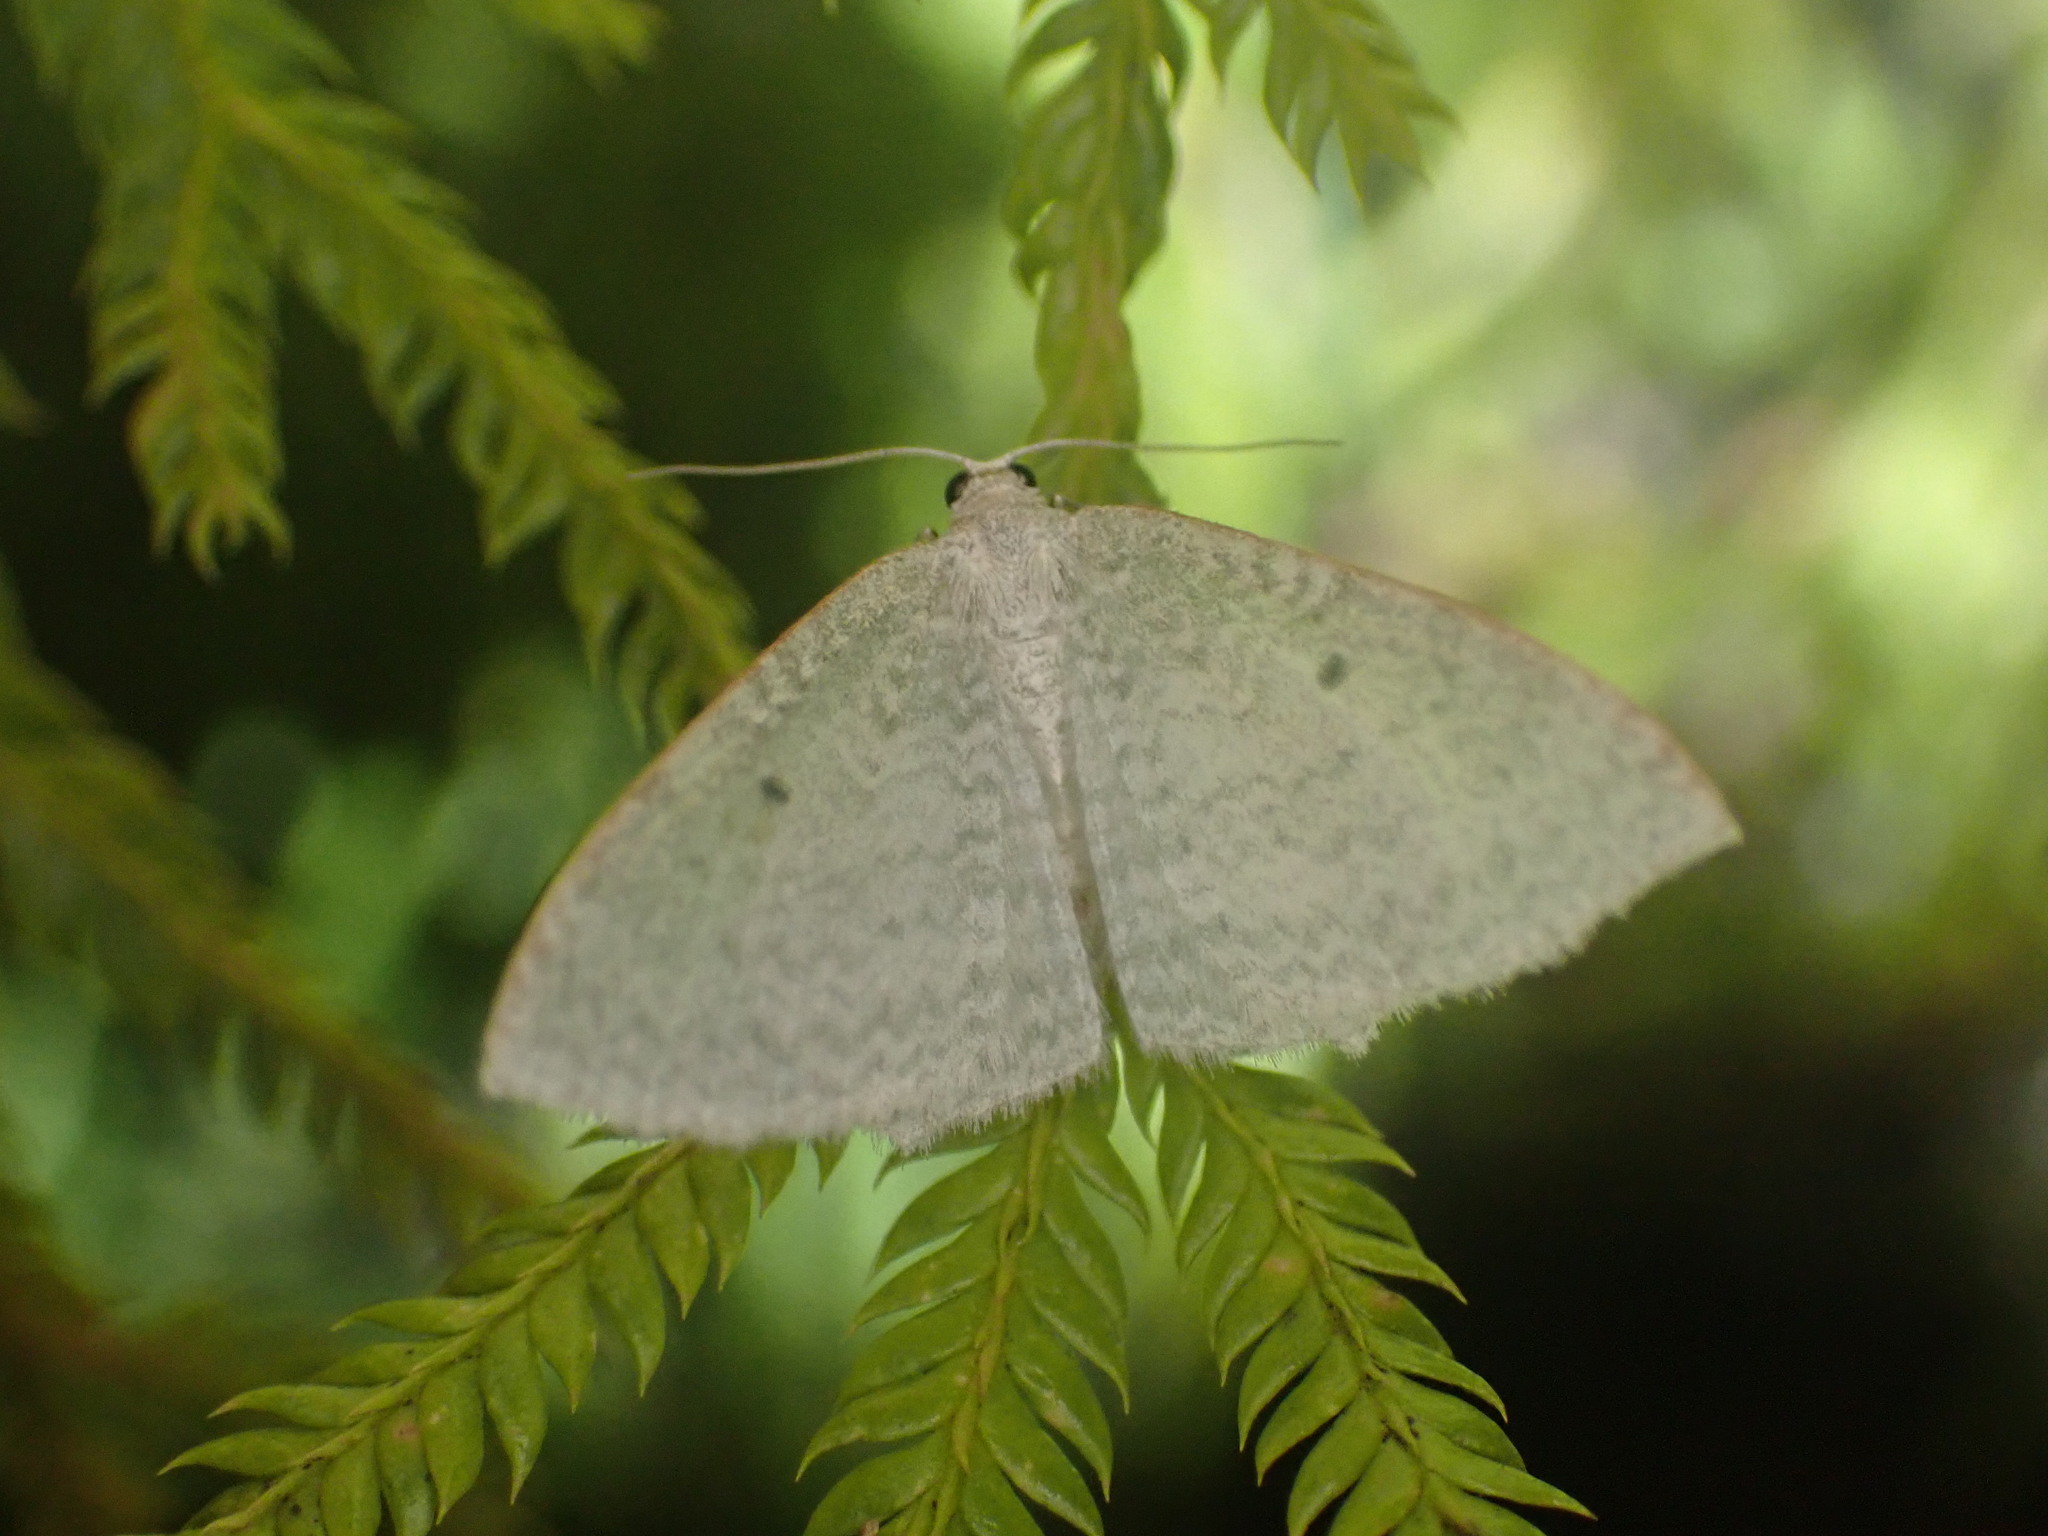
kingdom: Animalia
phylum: Arthropoda
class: Insecta
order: Lepidoptera
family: Geometridae
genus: Poecilasthena
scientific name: Poecilasthena pulchraria
